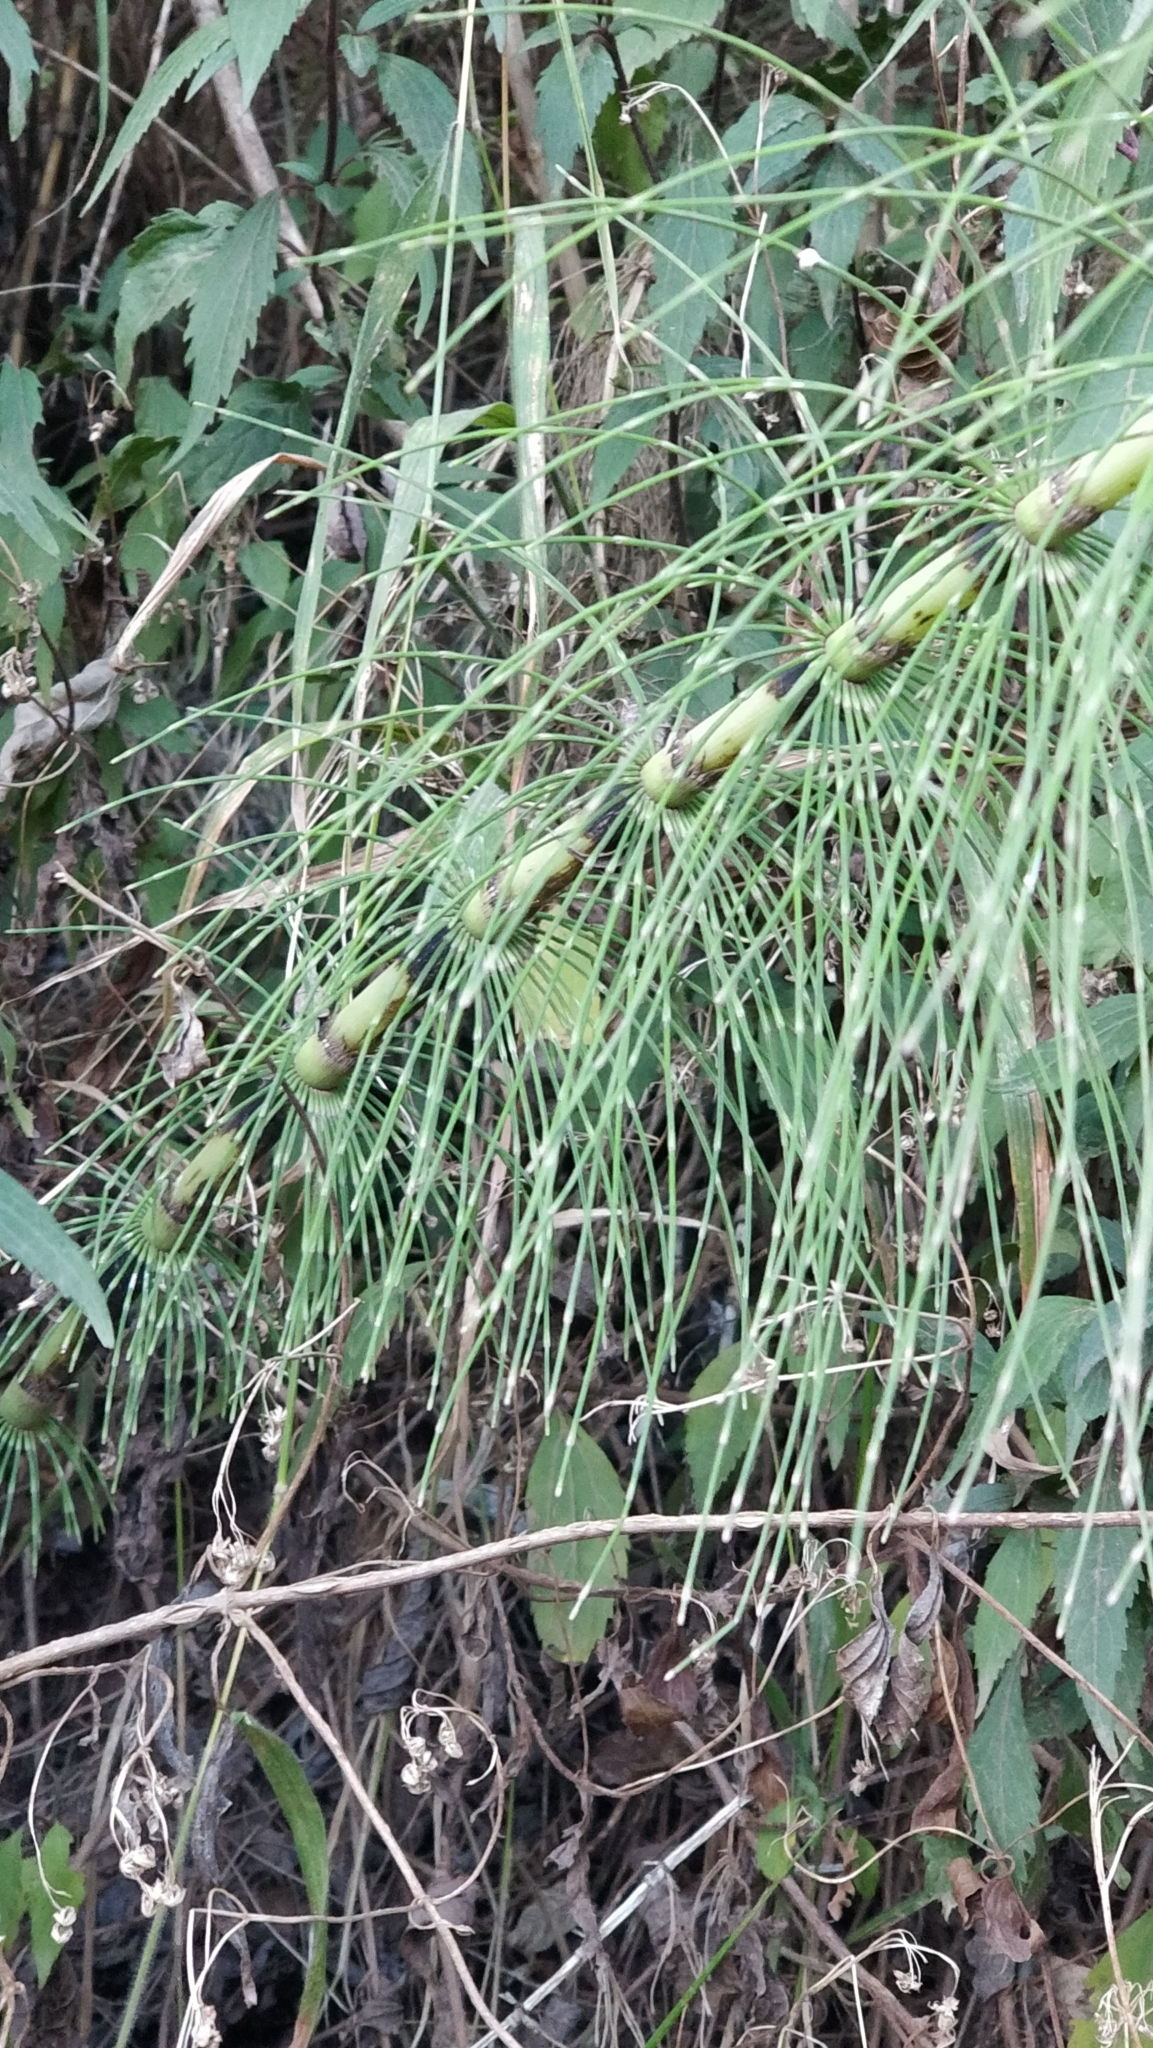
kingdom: Plantae
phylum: Tracheophyta
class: Polypodiopsida
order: Equisetales
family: Equisetaceae
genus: Equisetum
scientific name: Equisetum telmateia
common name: Great horsetail
